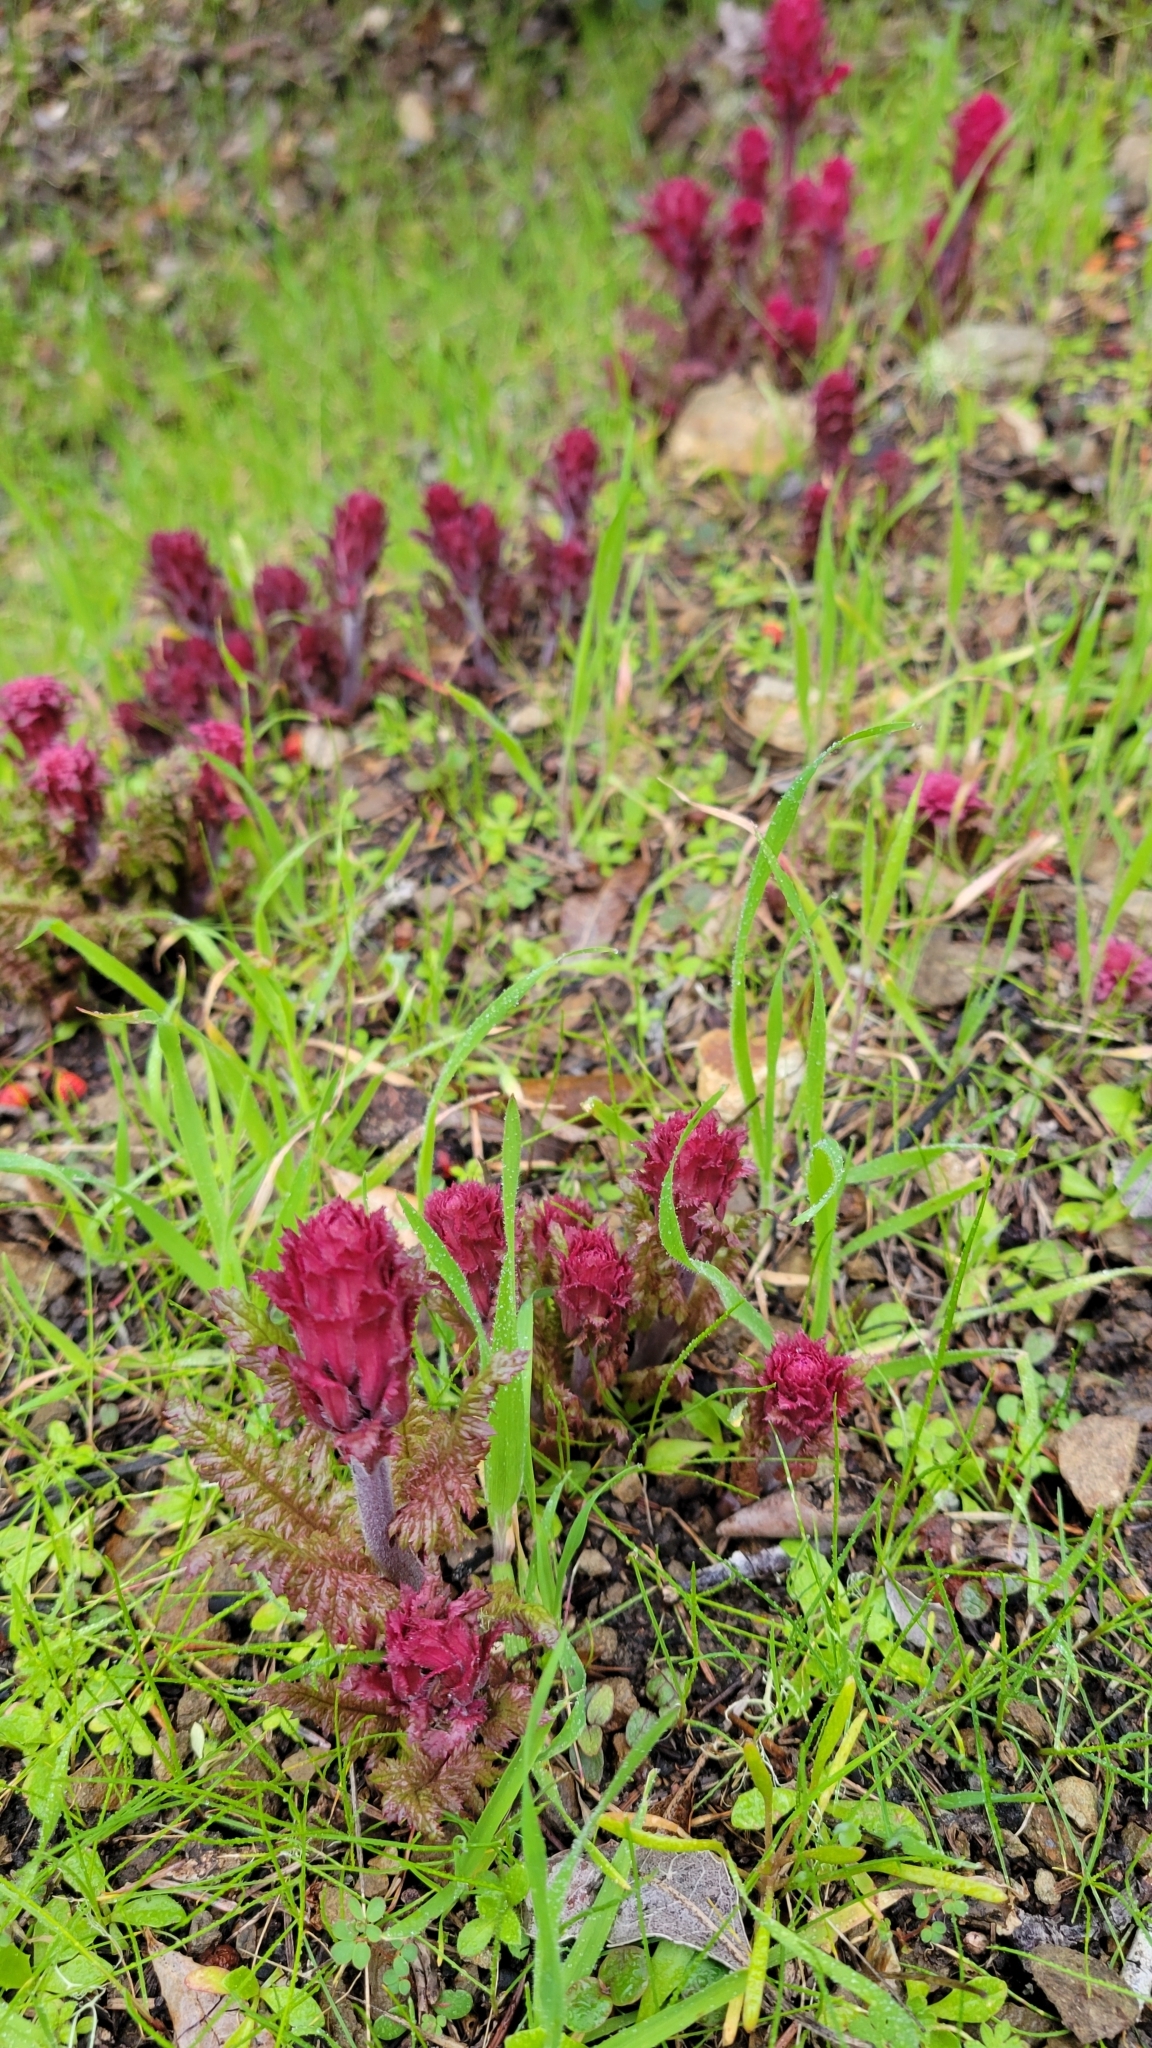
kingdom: Plantae
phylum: Tracheophyta
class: Magnoliopsida
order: Lamiales
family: Orobanchaceae
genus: Pedicularis
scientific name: Pedicularis densiflora
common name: Indian warrior
